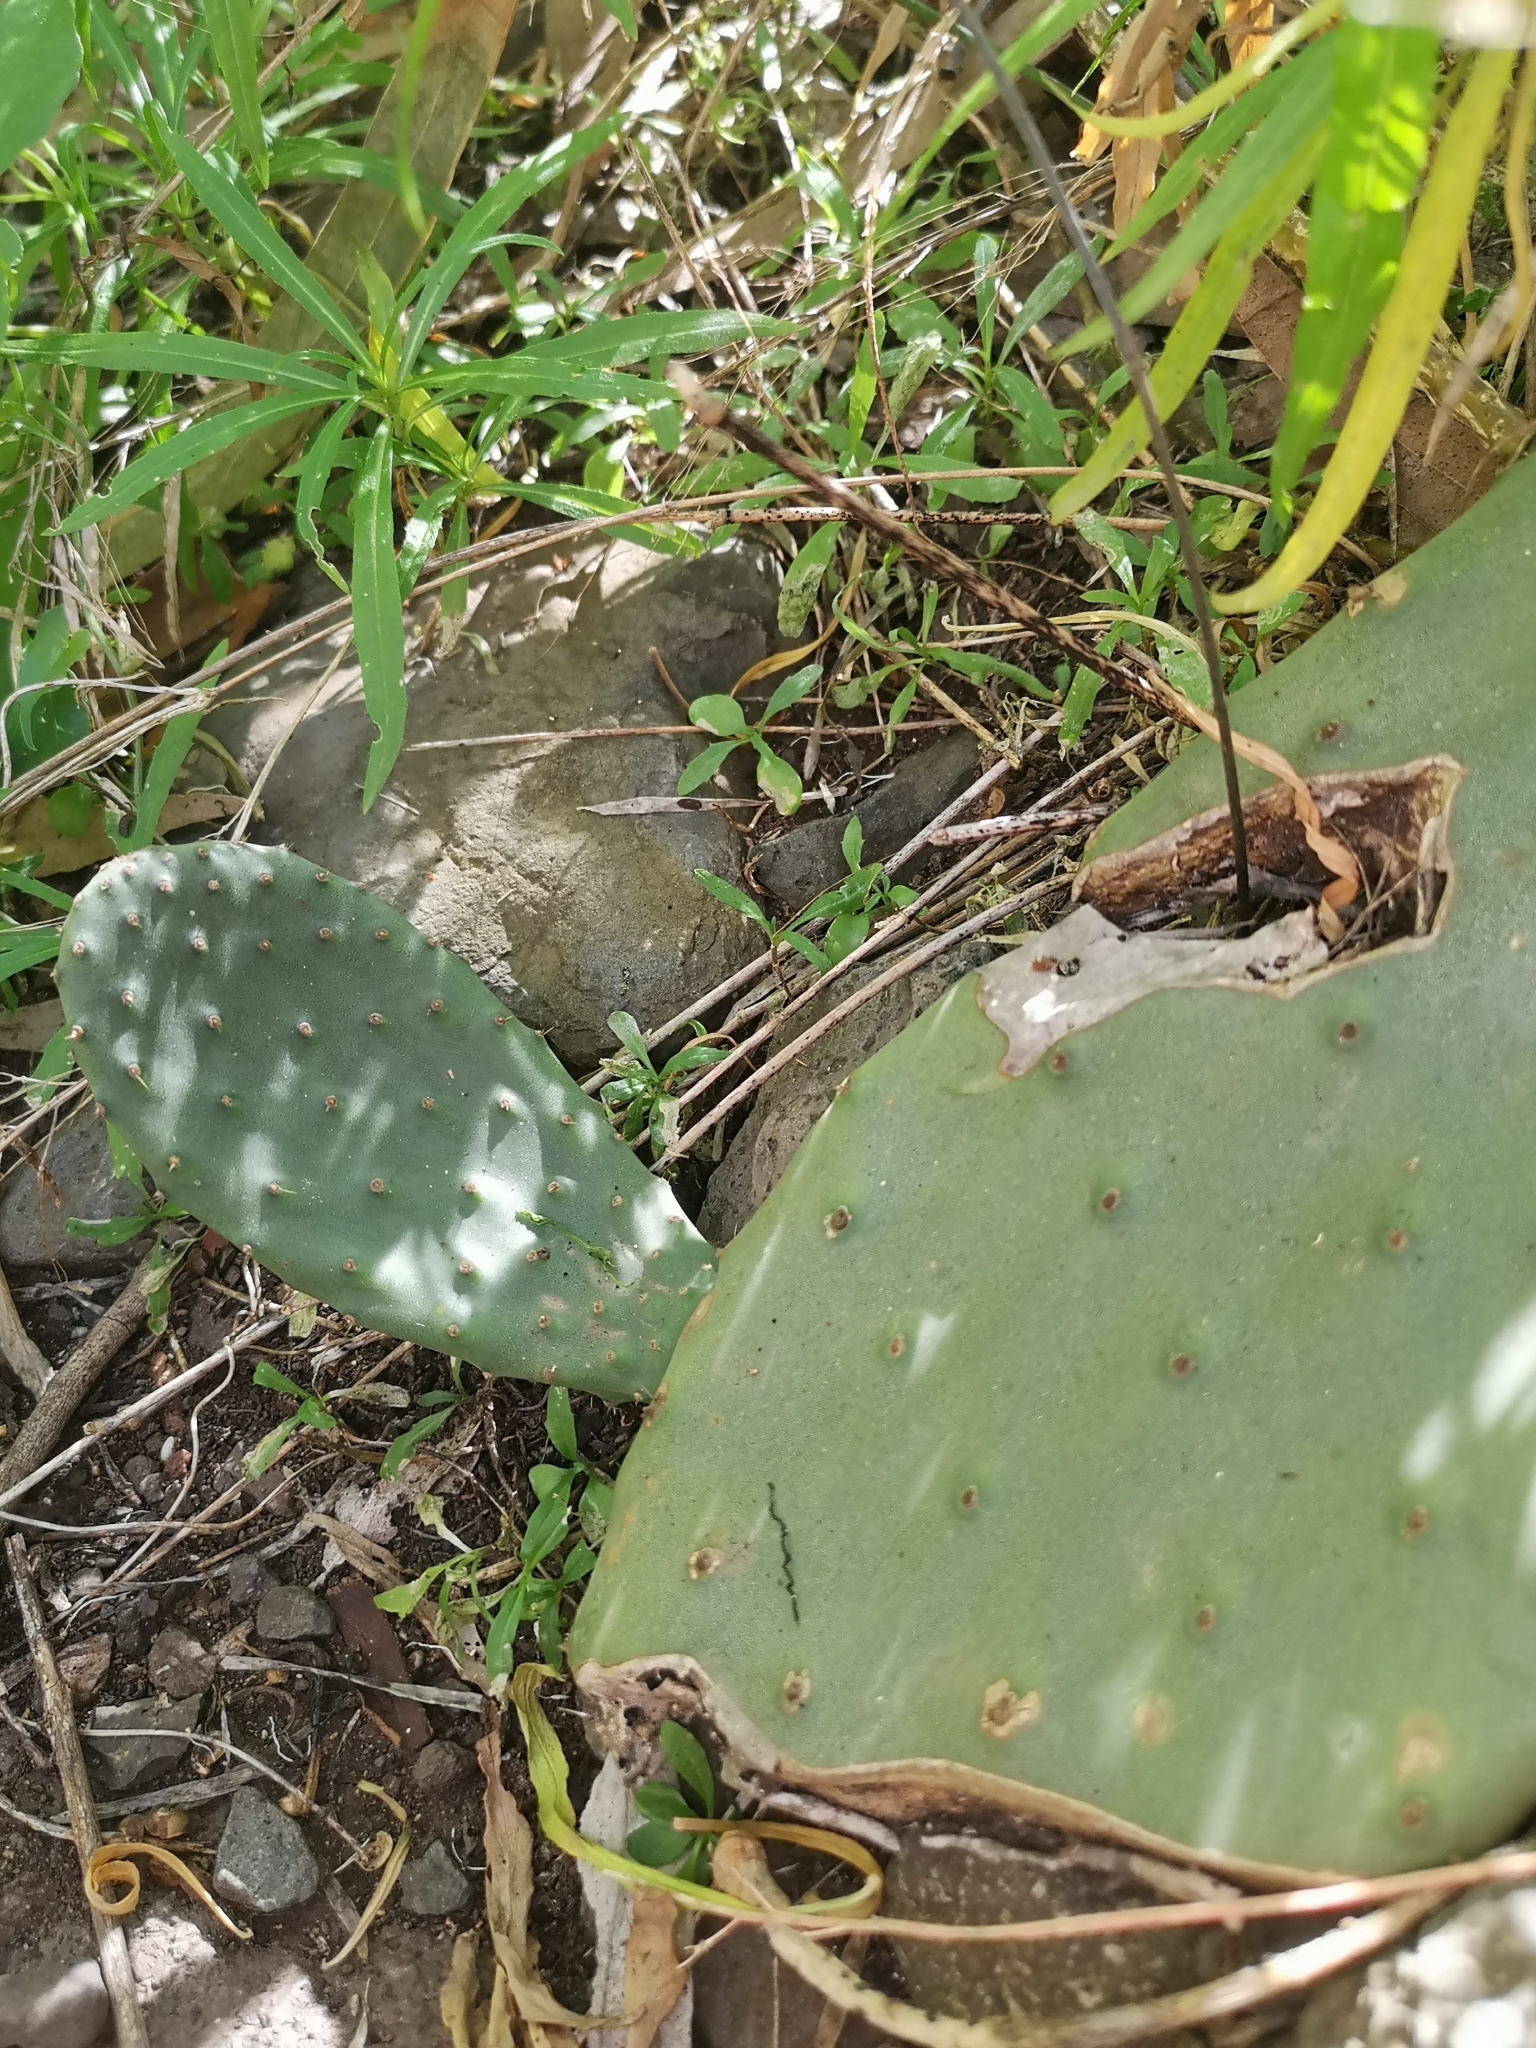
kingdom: Plantae
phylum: Tracheophyta
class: Magnoliopsida
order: Caryophyllales
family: Cactaceae
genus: Opuntia
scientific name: Opuntia ficus-indica
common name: Barbary fig
